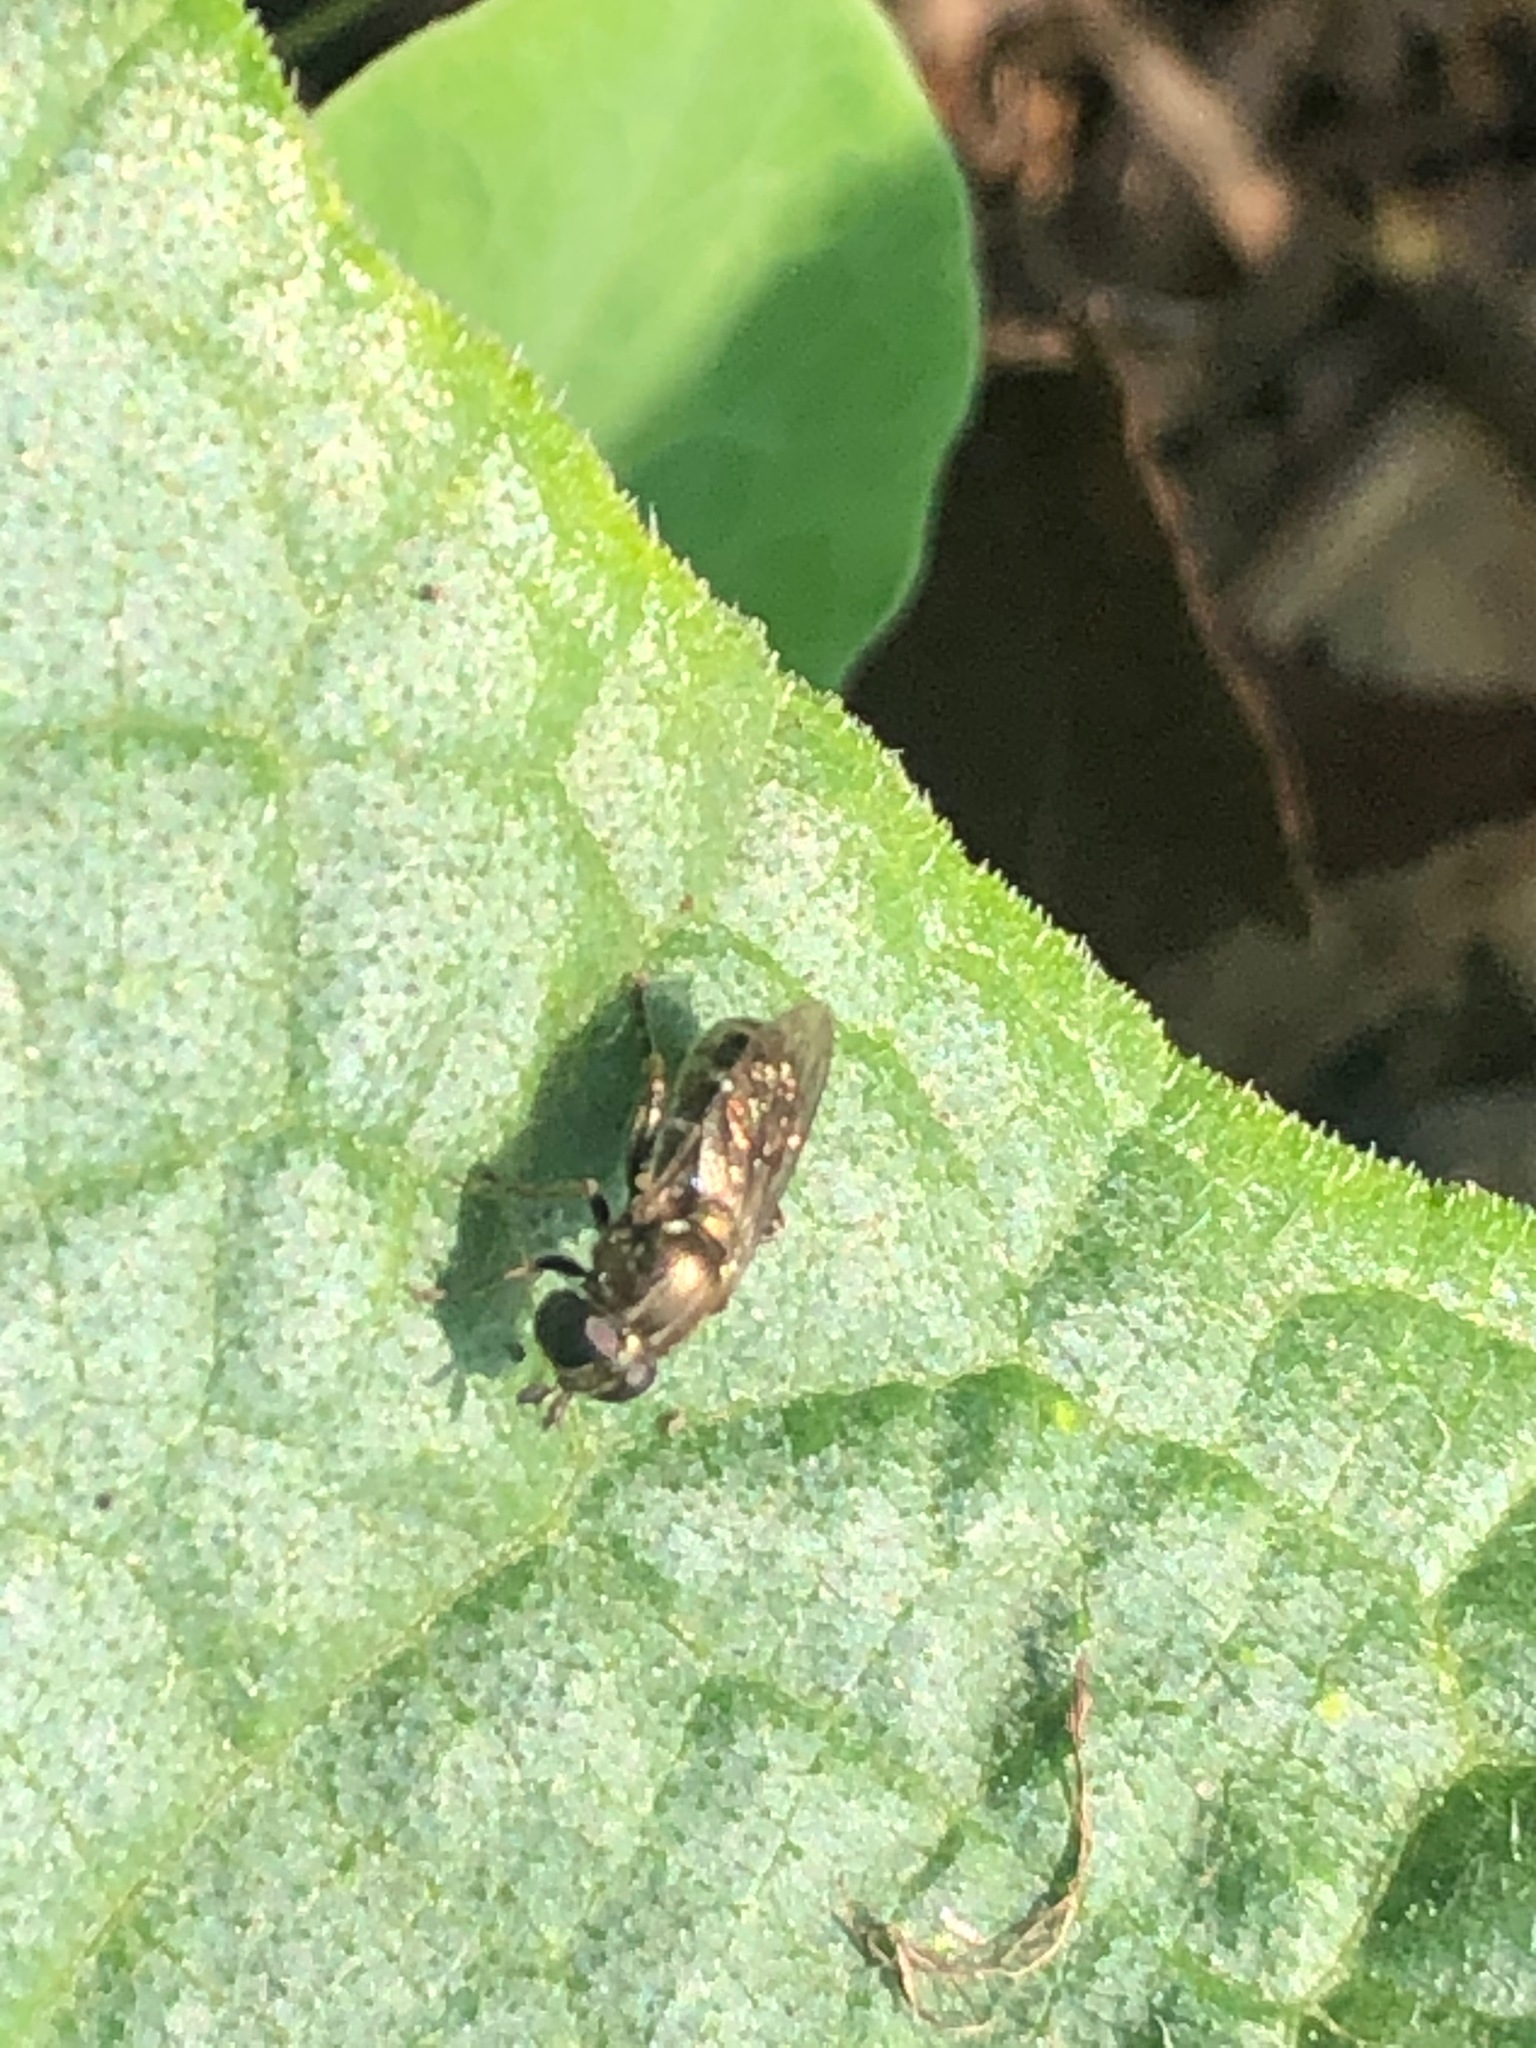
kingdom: Animalia
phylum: Arthropoda
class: Insecta
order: Diptera
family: Syrphidae
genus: Eumerus
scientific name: Eumerus
